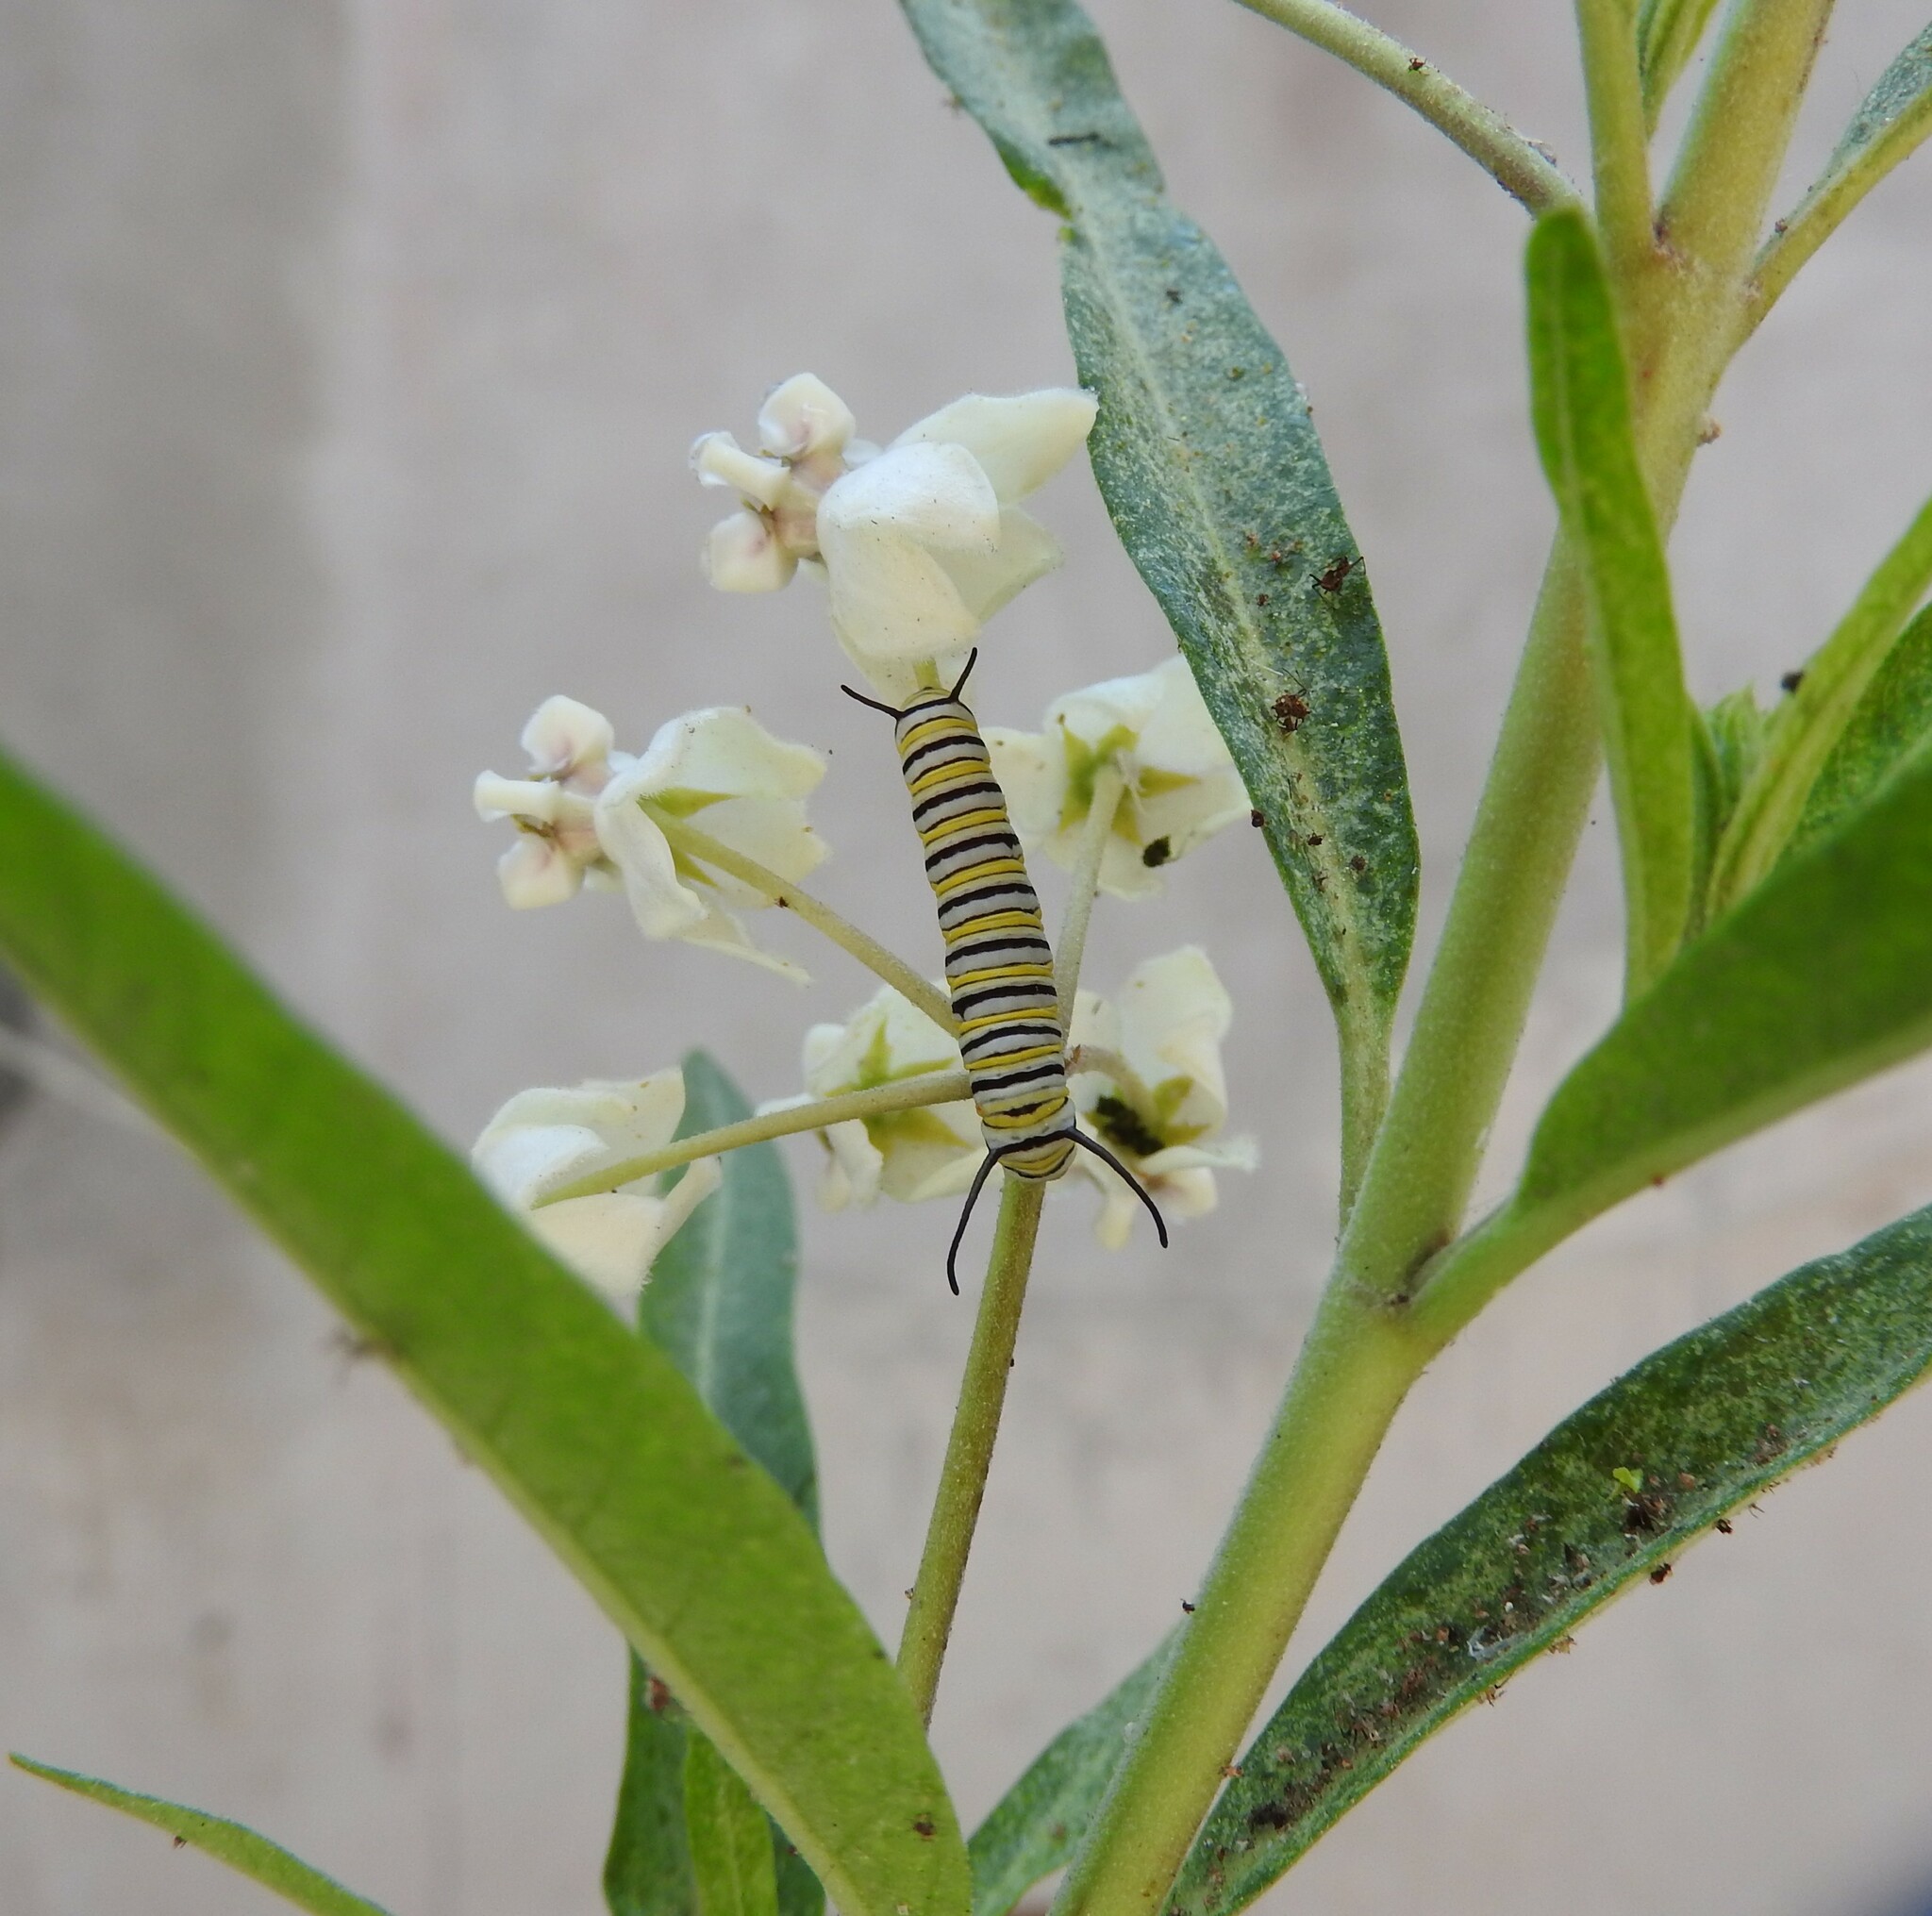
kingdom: Animalia
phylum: Arthropoda
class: Insecta
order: Lepidoptera
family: Nymphalidae
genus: Danaus
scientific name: Danaus plexippus
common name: Monarch
